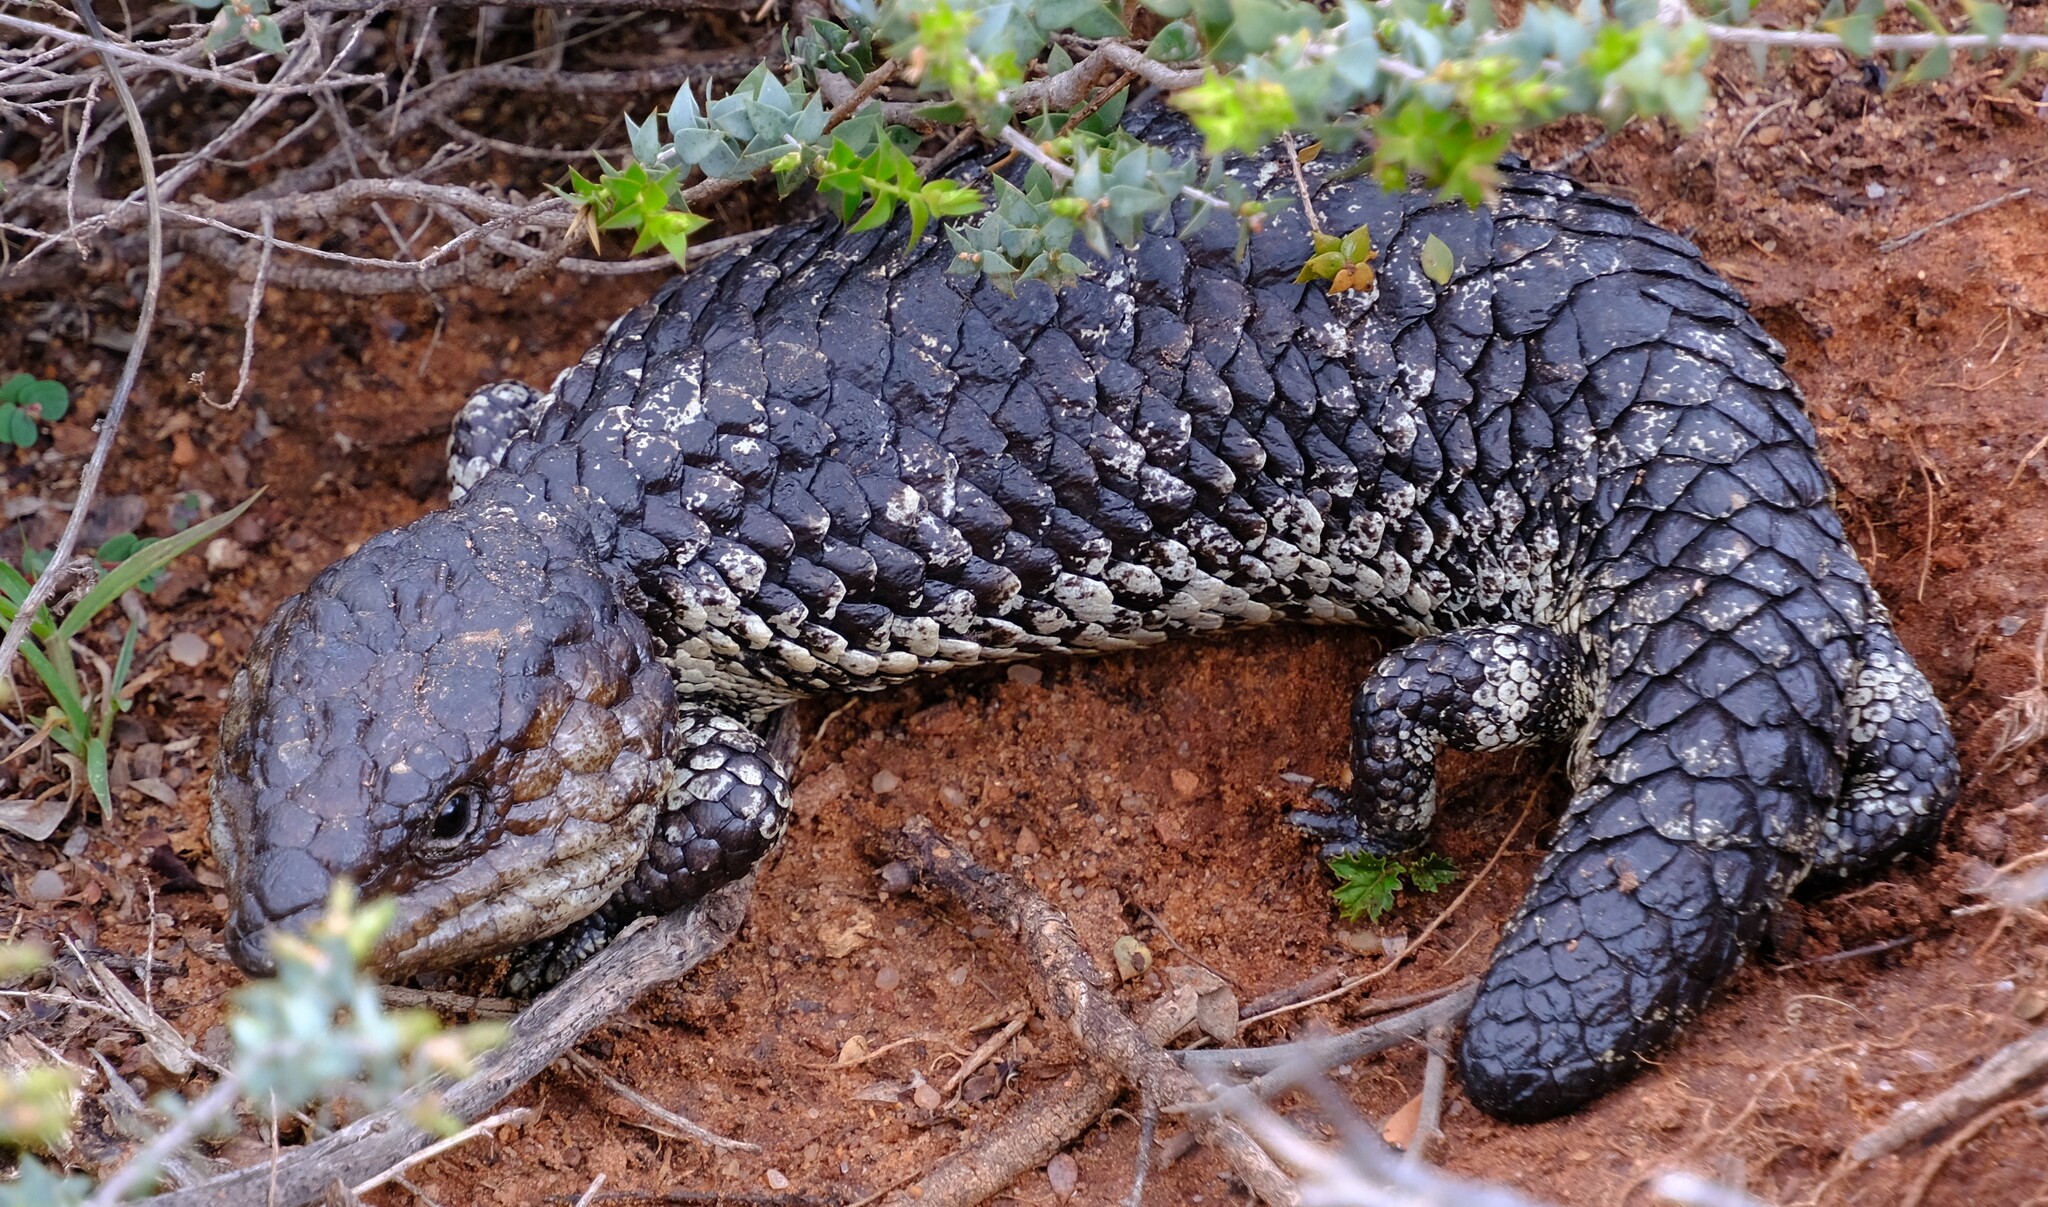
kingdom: Animalia
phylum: Chordata
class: Squamata
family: Scincidae
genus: Tiliqua
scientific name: Tiliqua rugosa
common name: Pinecone lizard
